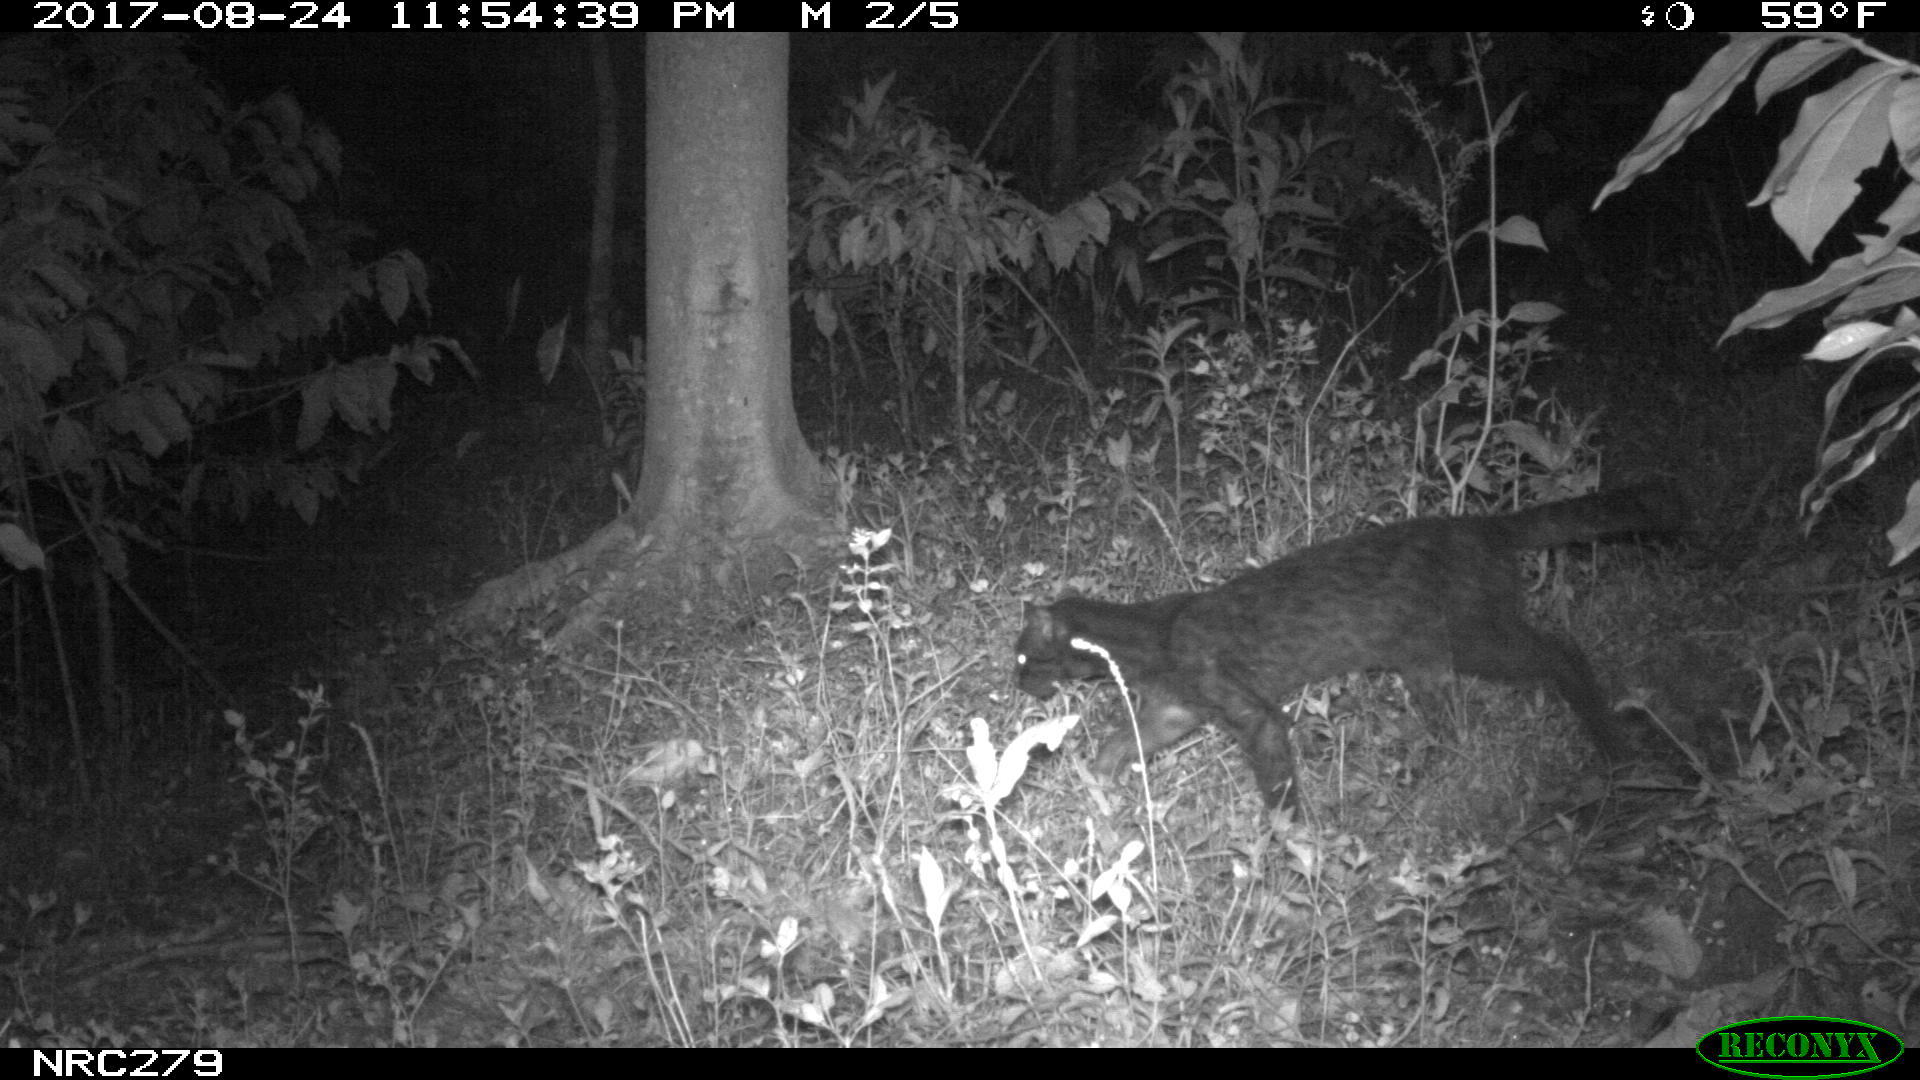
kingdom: Animalia
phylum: Chordata
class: Mammalia
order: Carnivora
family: Felidae
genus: Leopardus
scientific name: Leopardus tigrinus
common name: Oncilla
